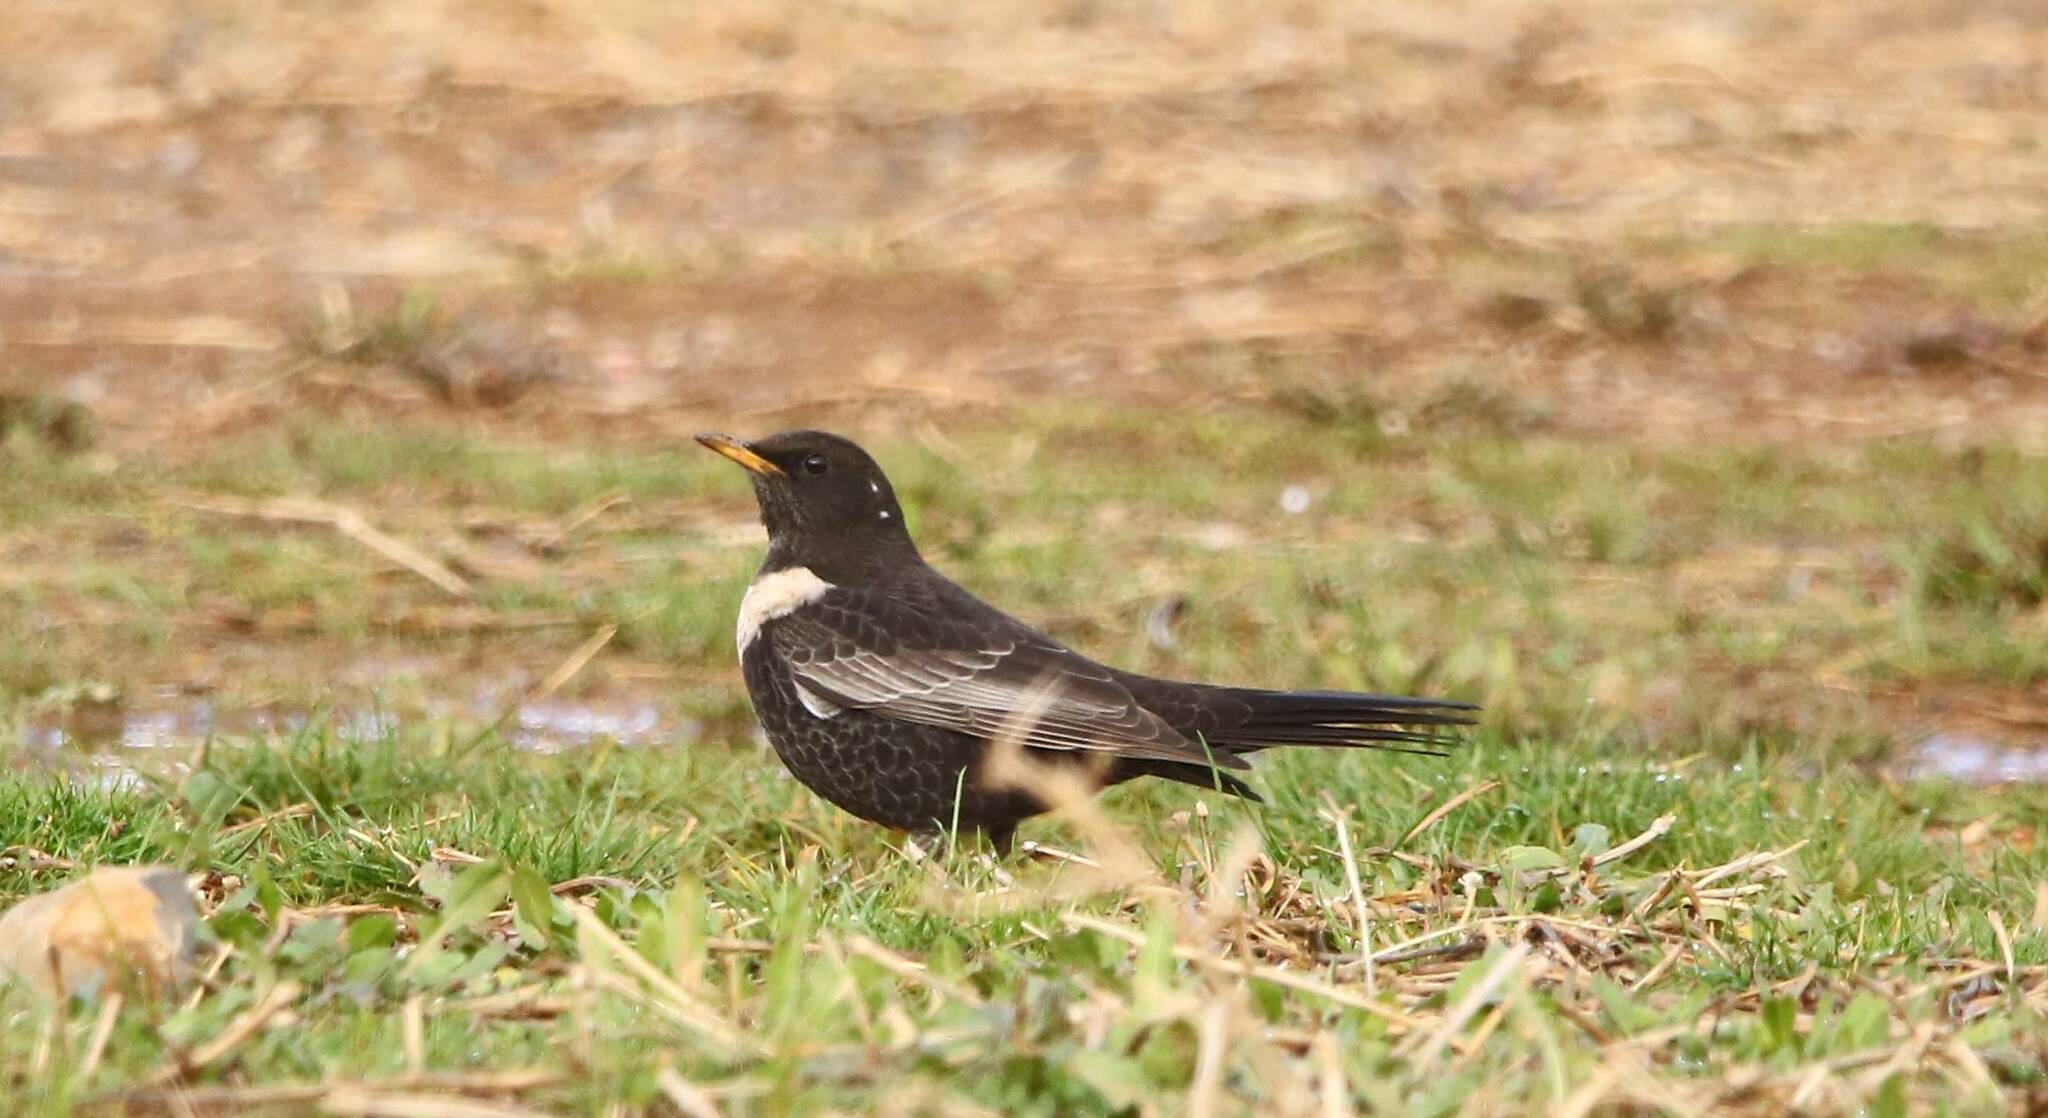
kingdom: Animalia
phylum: Chordata
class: Aves
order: Passeriformes
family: Turdidae
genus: Turdus
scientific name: Turdus torquatus
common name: Ring ouzel
